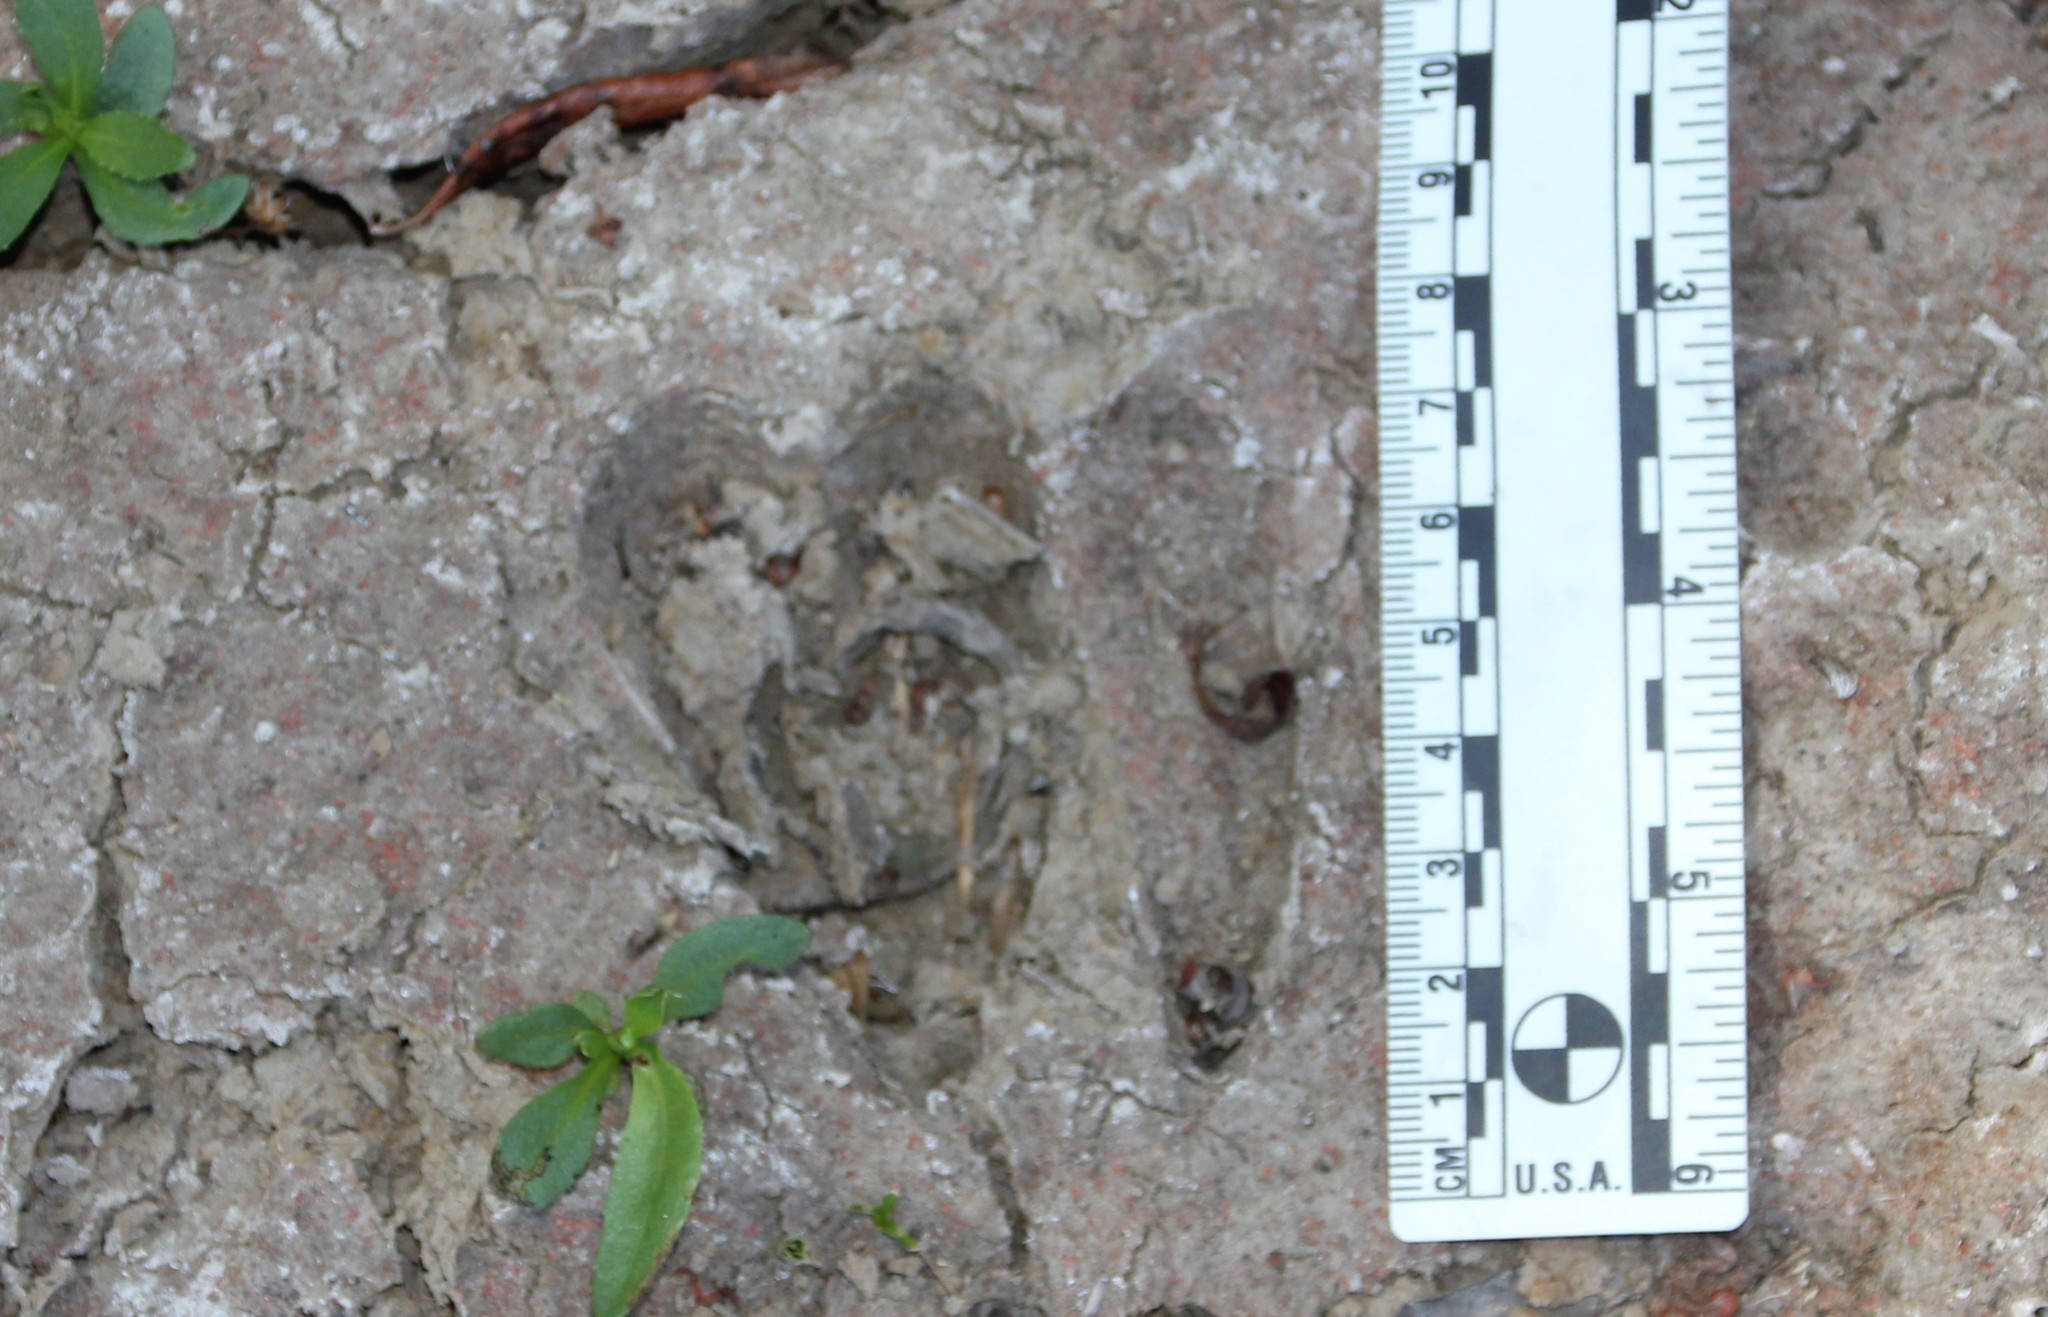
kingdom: Animalia
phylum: Chordata
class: Mammalia
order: Artiodactyla
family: Cervidae
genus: Odocoileus
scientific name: Odocoileus hemionus
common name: Mule deer
